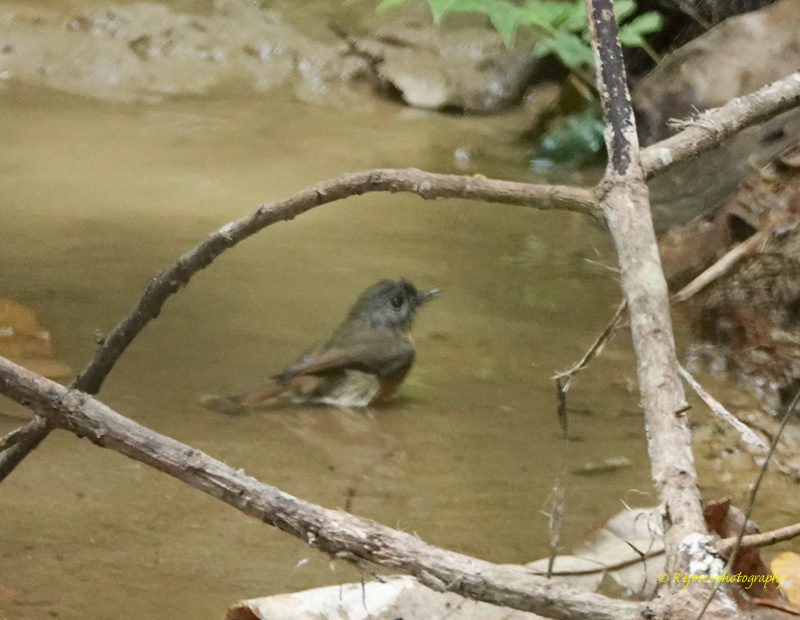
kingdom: Animalia
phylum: Chordata
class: Aves
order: Passeriformes
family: Muscicapidae
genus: Cyornis
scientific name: Cyornis poliogenys
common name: Pale-chinned blue flycatcher
